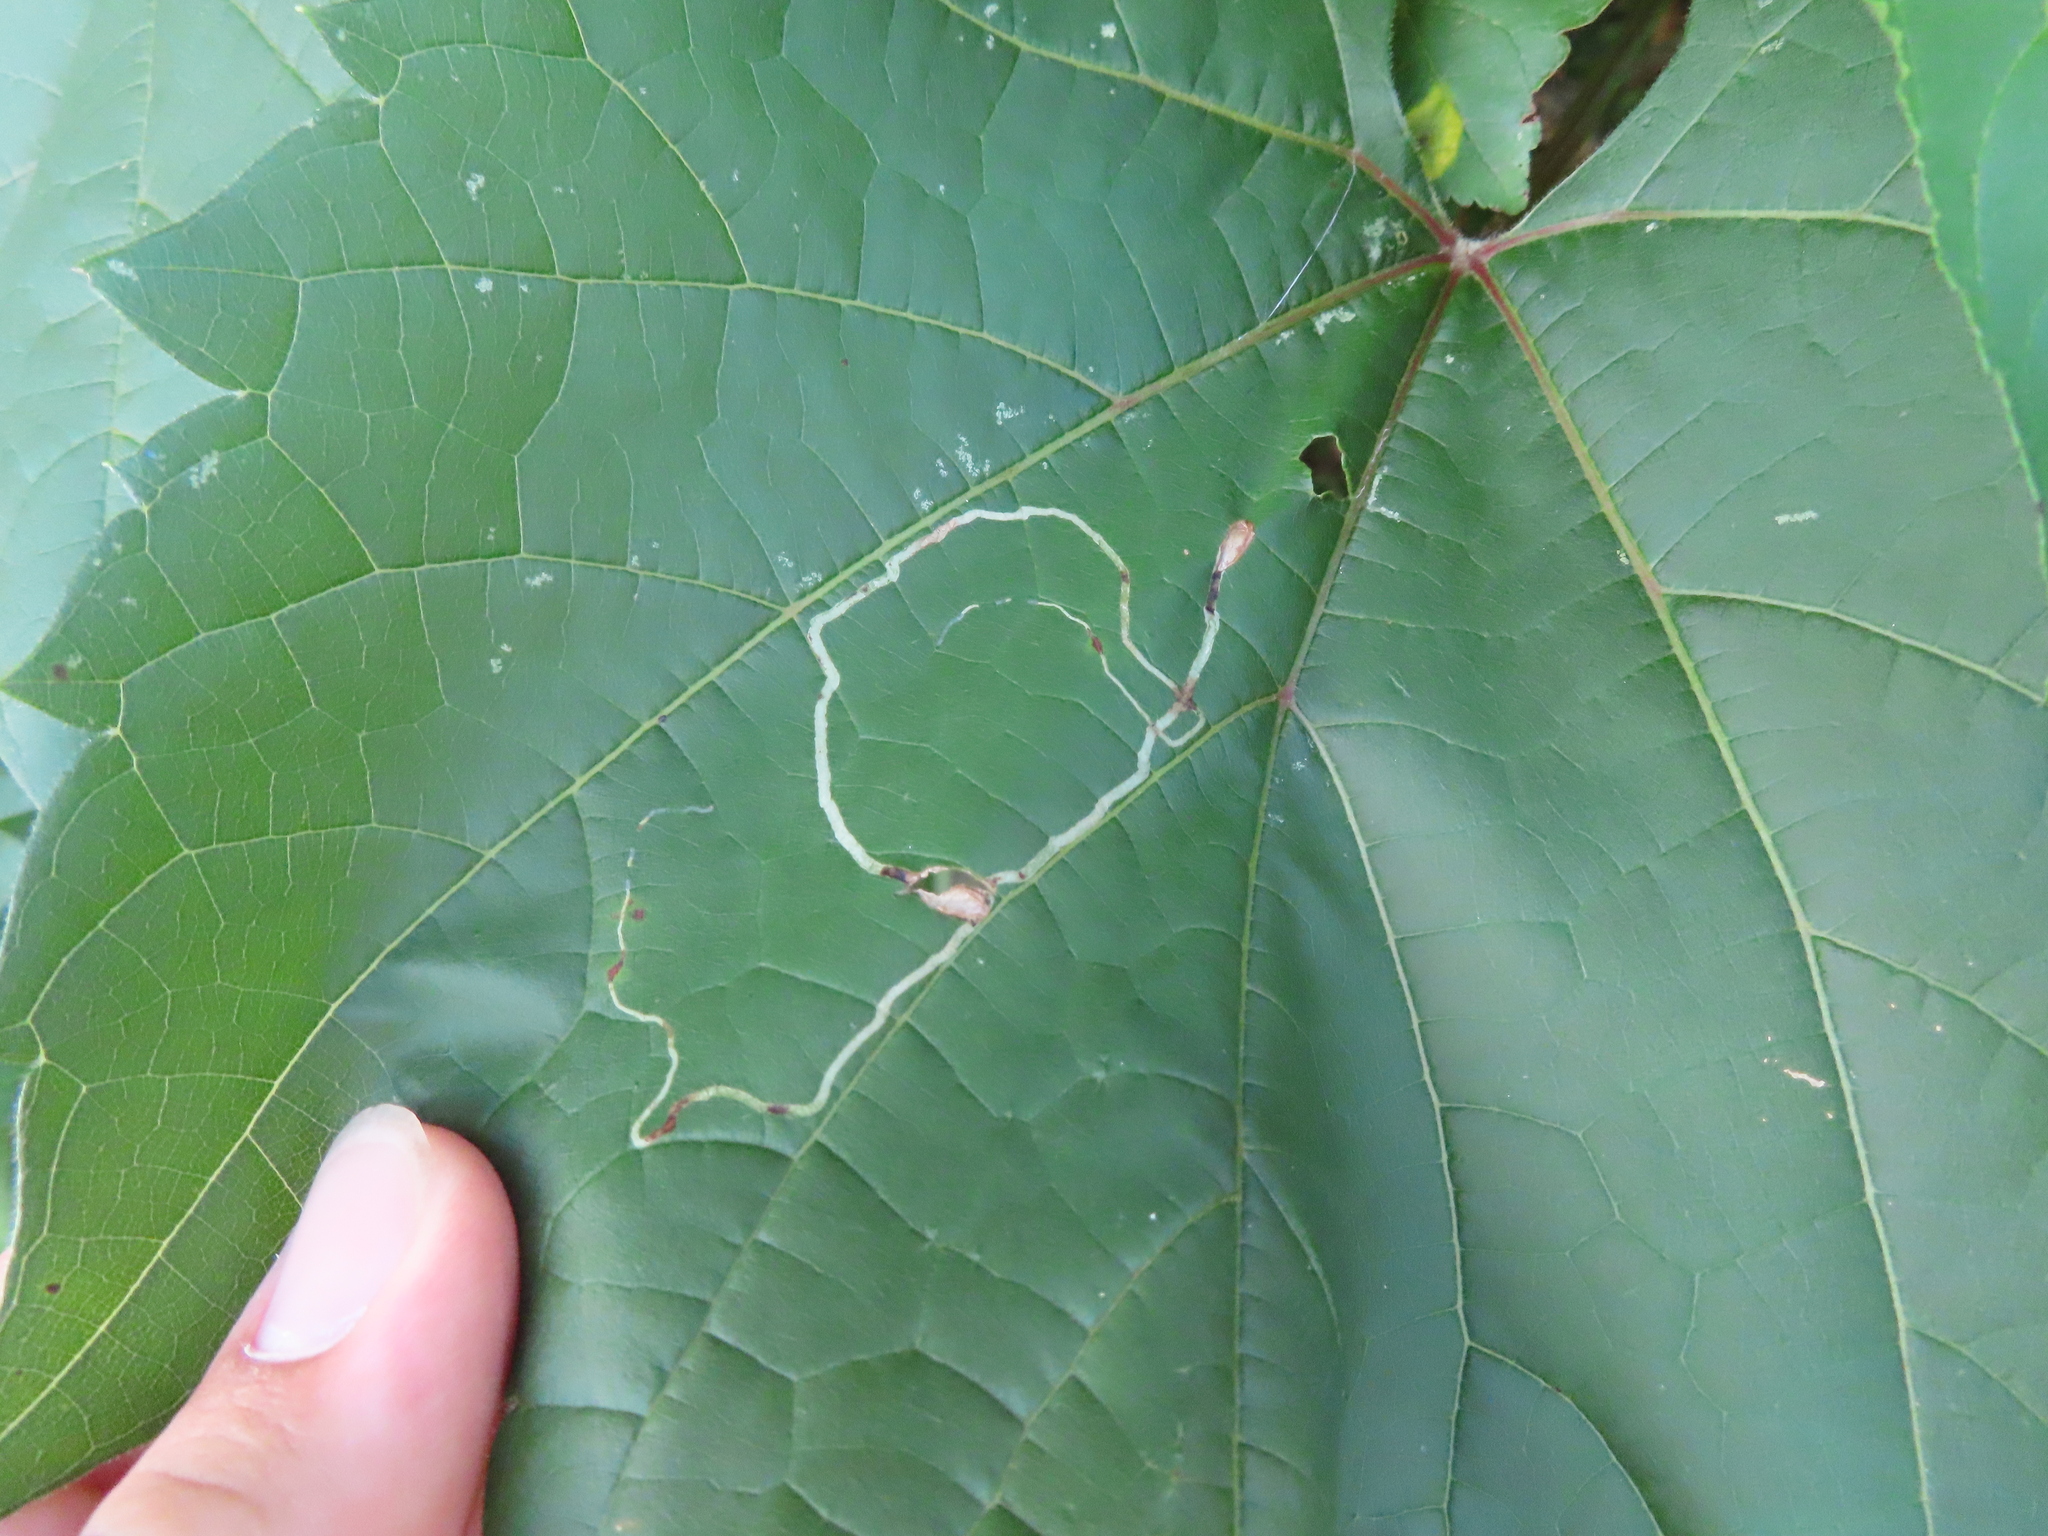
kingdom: Animalia
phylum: Arthropoda
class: Insecta
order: Lepidoptera
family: Gracillariidae
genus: Phyllocnistis
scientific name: Phyllocnistis vitifoliella
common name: Grape leaf-miner moth
